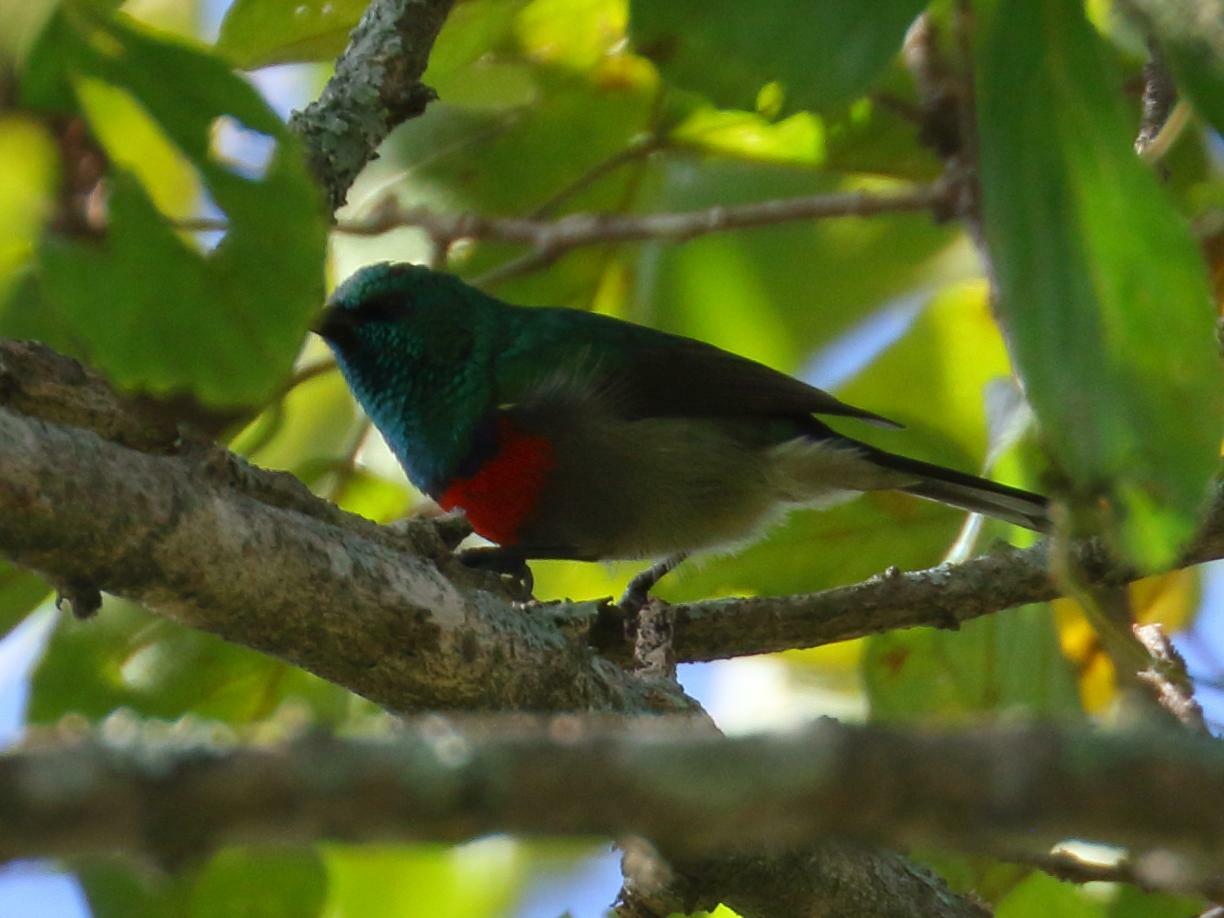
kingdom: Animalia
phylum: Chordata
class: Aves
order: Passeriformes
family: Nectariniidae
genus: Cinnyris
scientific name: Cinnyris chalybeus
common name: Southern double-collared sunbird
